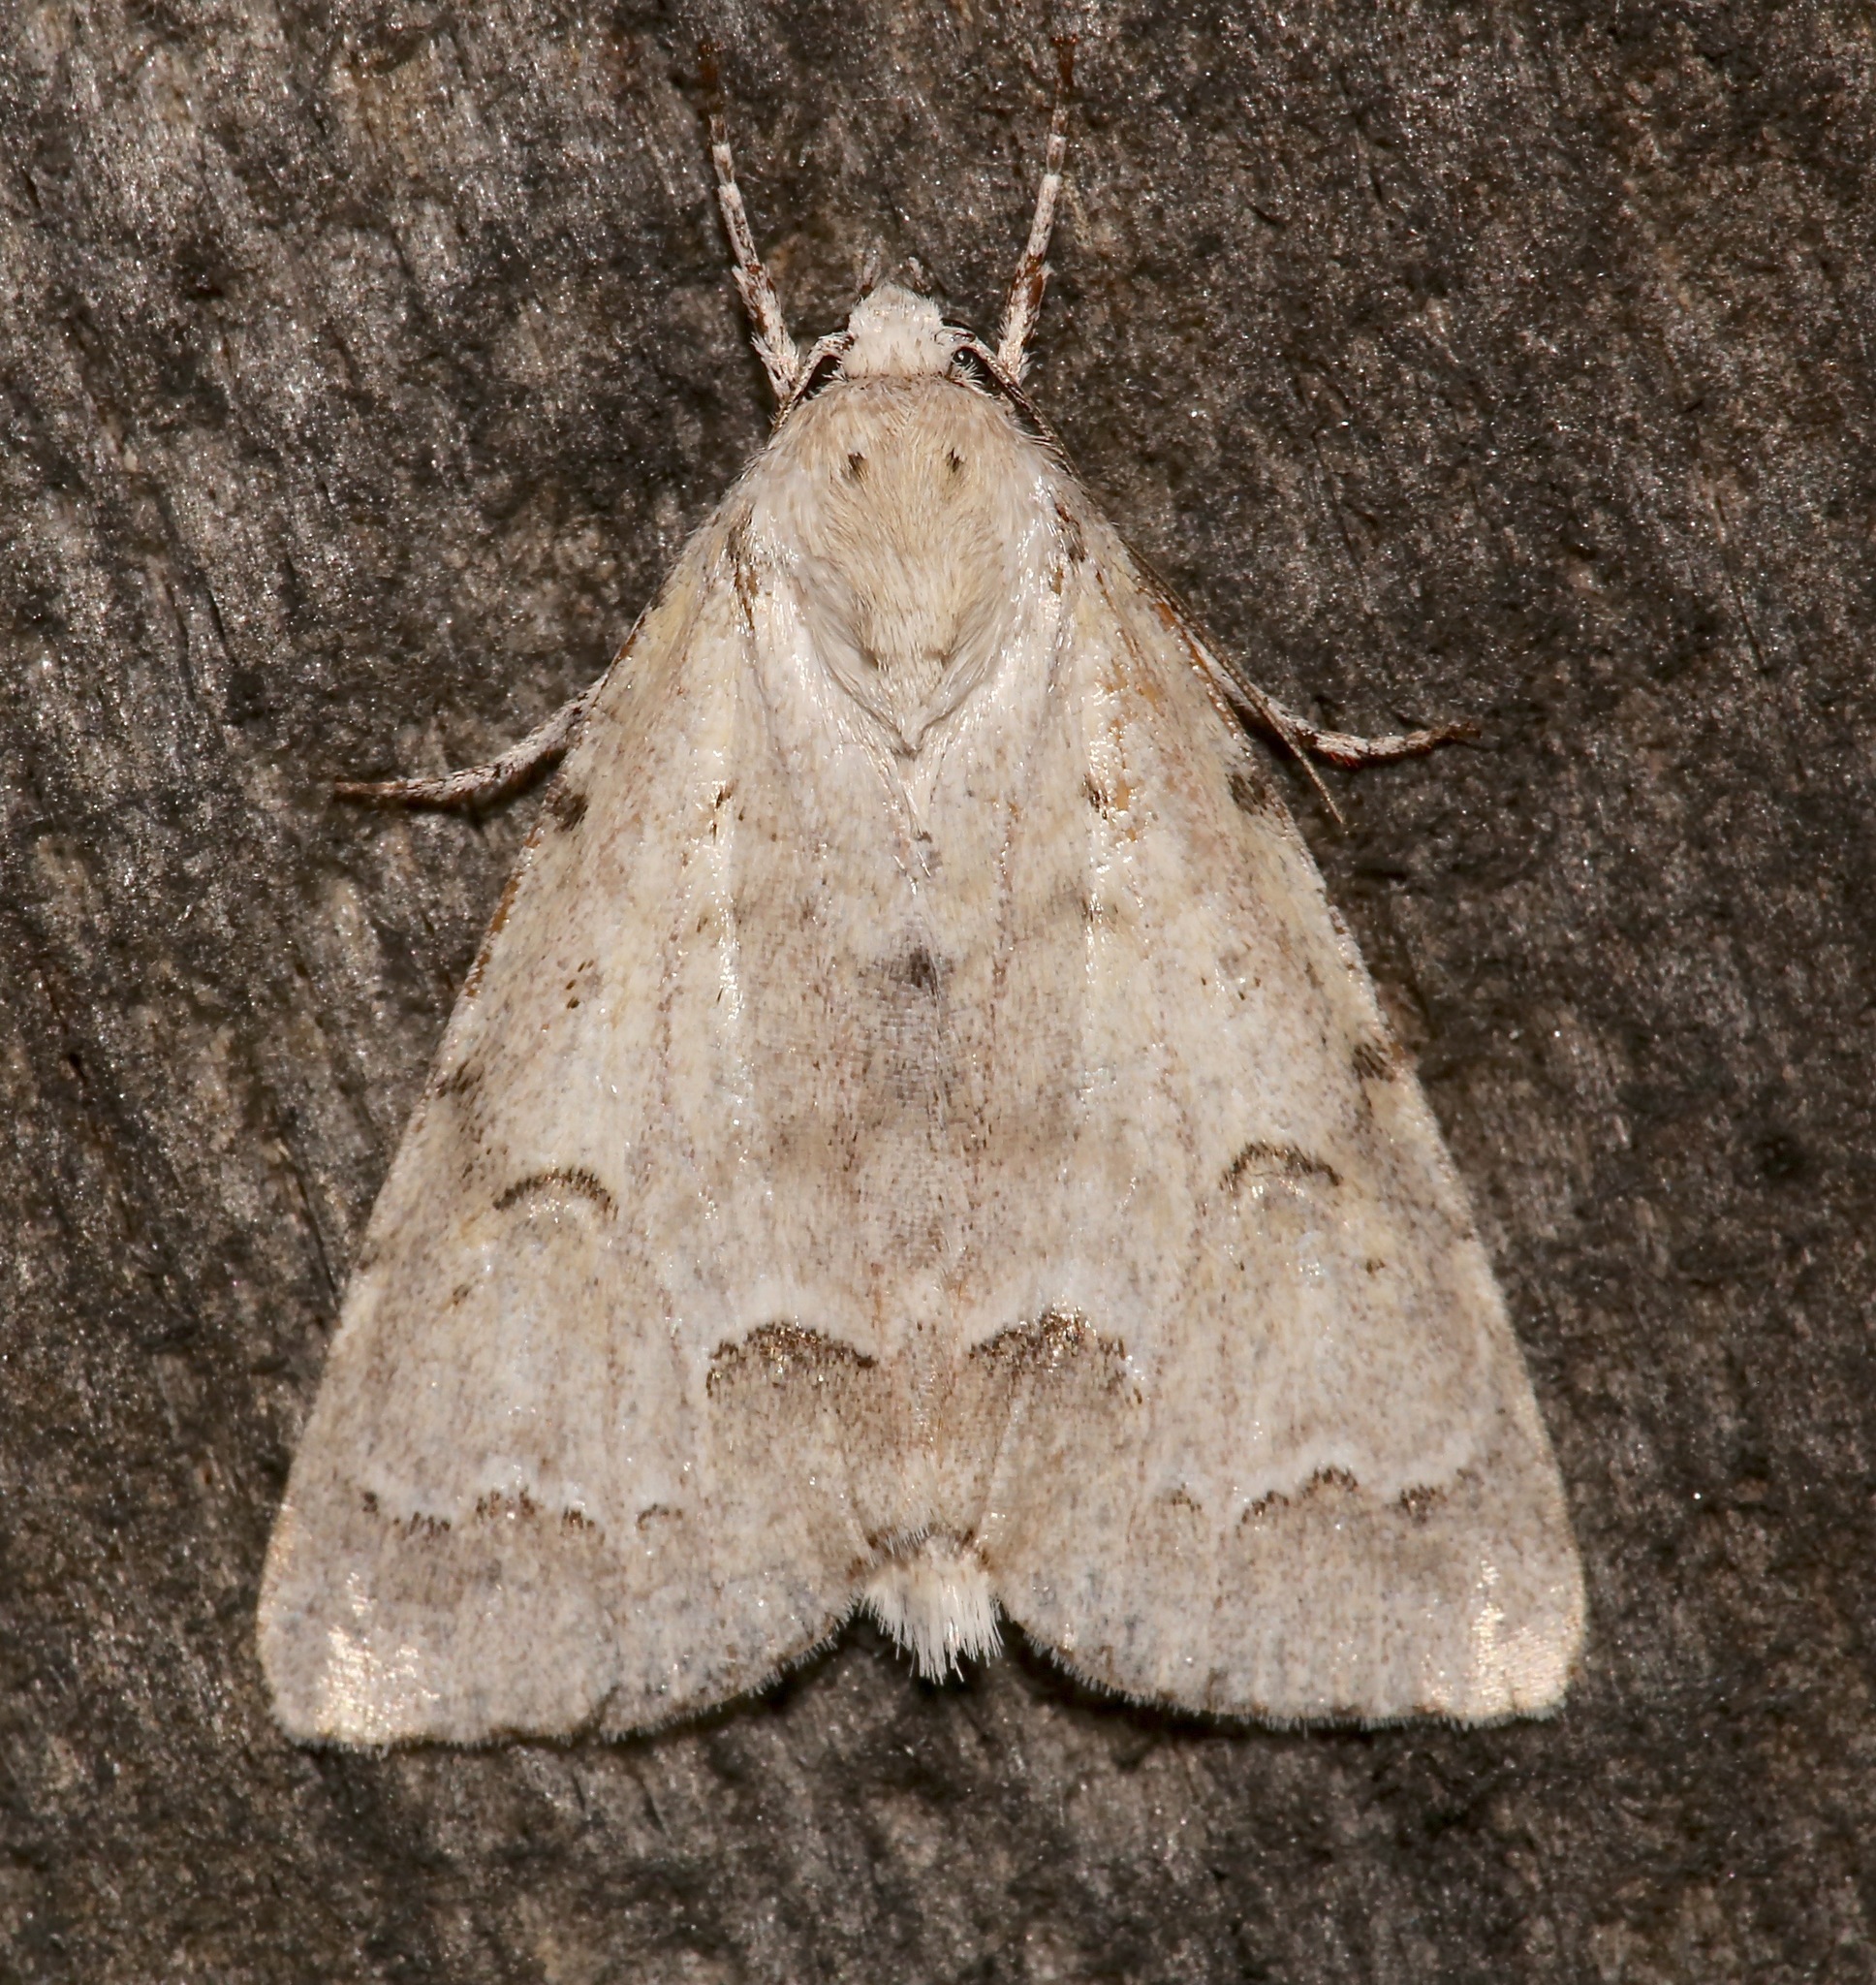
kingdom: Animalia
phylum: Arthropoda
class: Insecta
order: Lepidoptera
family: Noctuidae
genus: Acronicta
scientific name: Acronicta innotata
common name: Unmarked dagger
